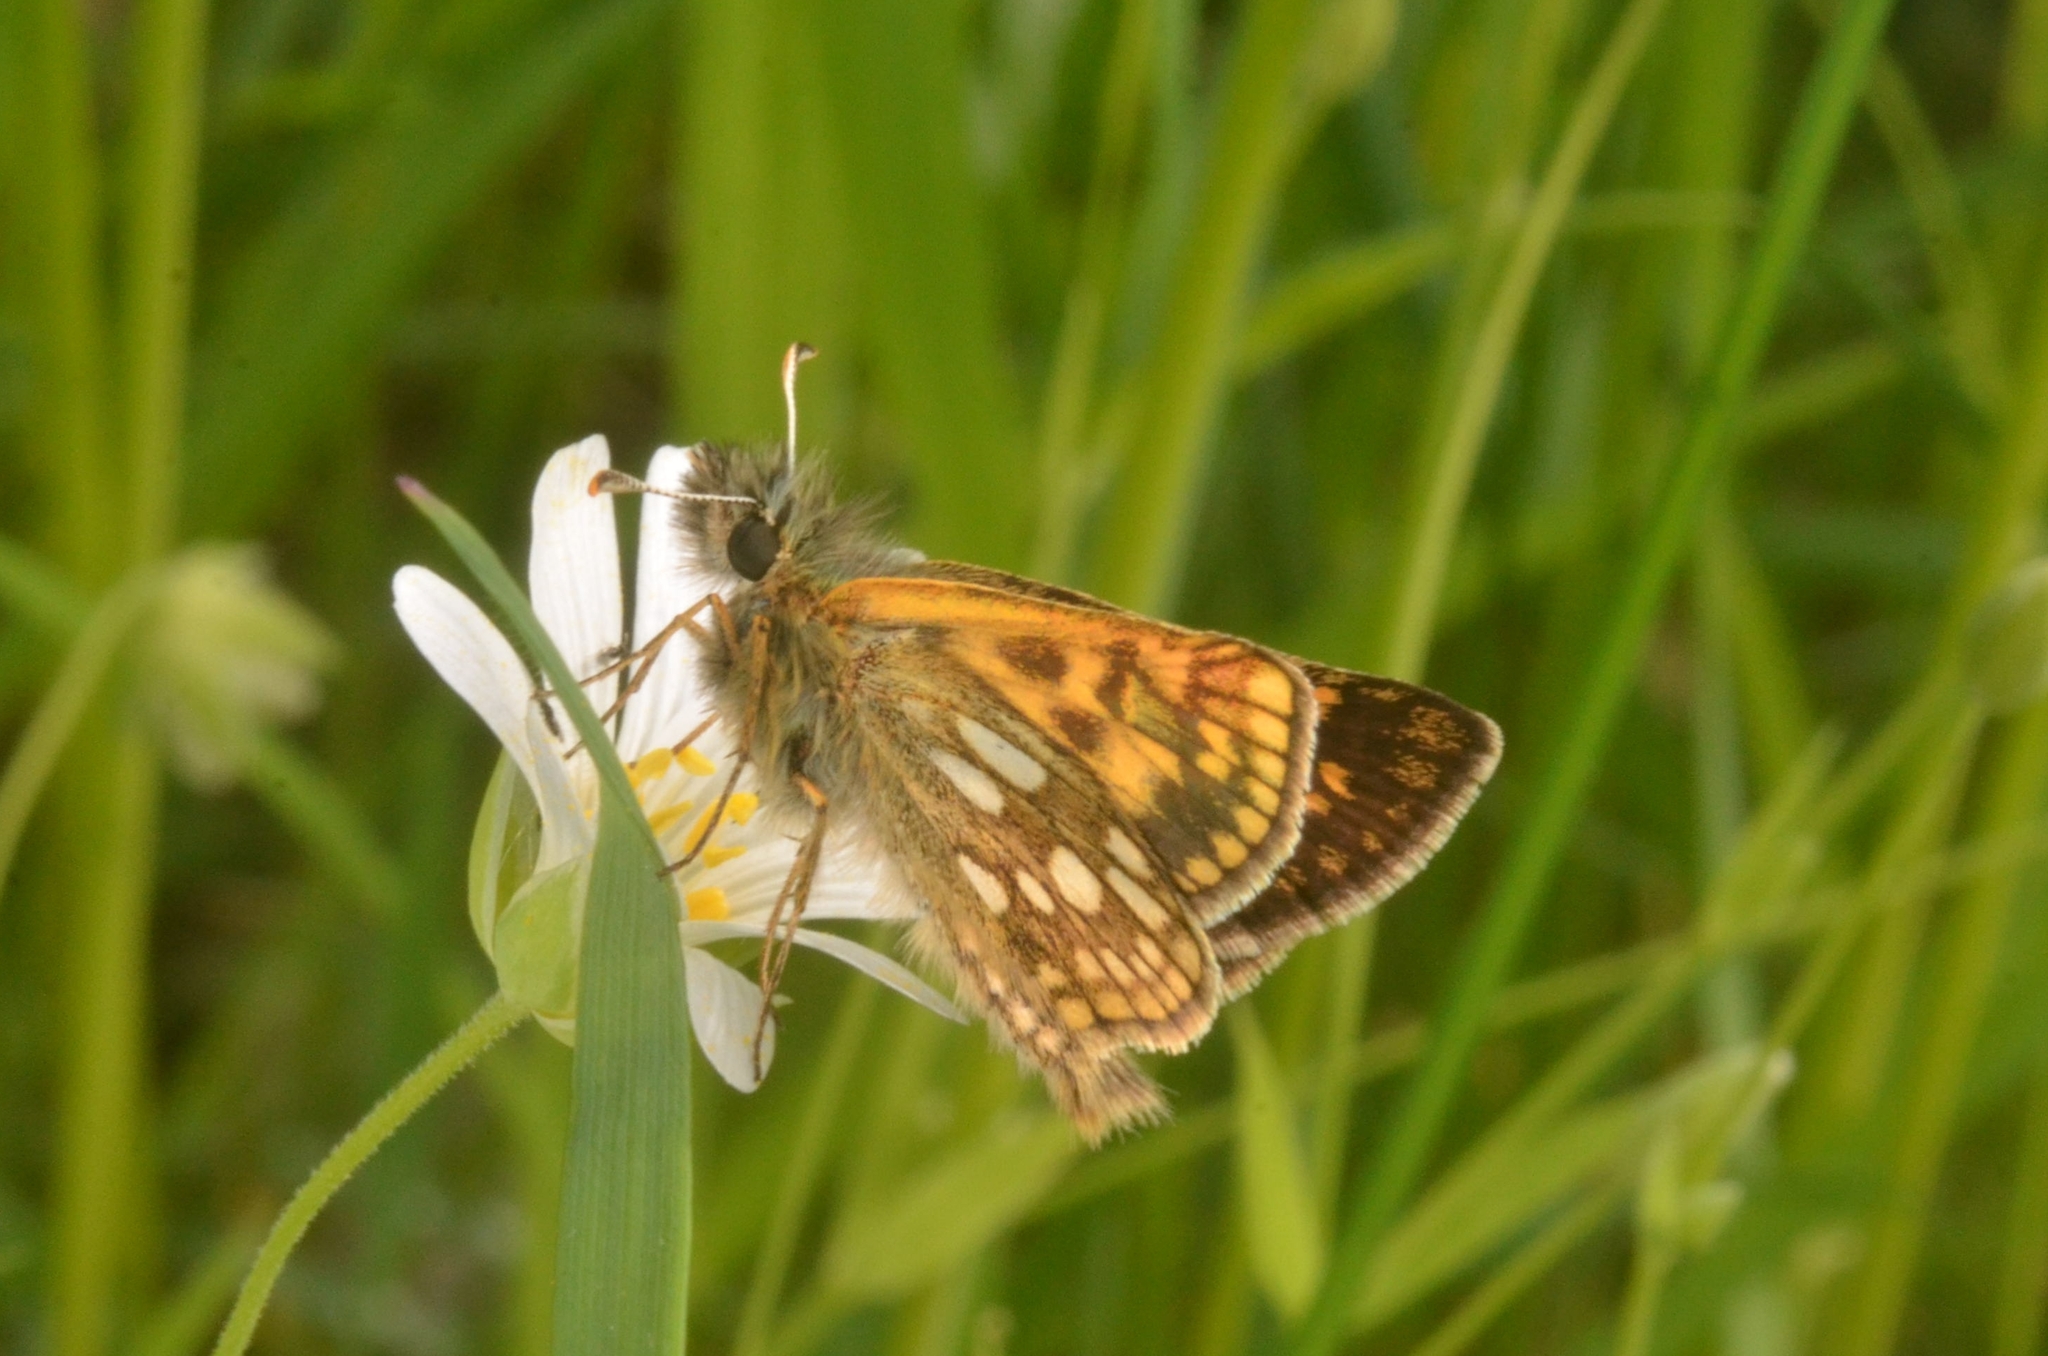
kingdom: Animalia
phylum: Arthropoda
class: Insecta
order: Lepidoptera
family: Hesperiidae
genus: Carterocephalus
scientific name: Carterocephalus palaemon
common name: Chequered skipper
